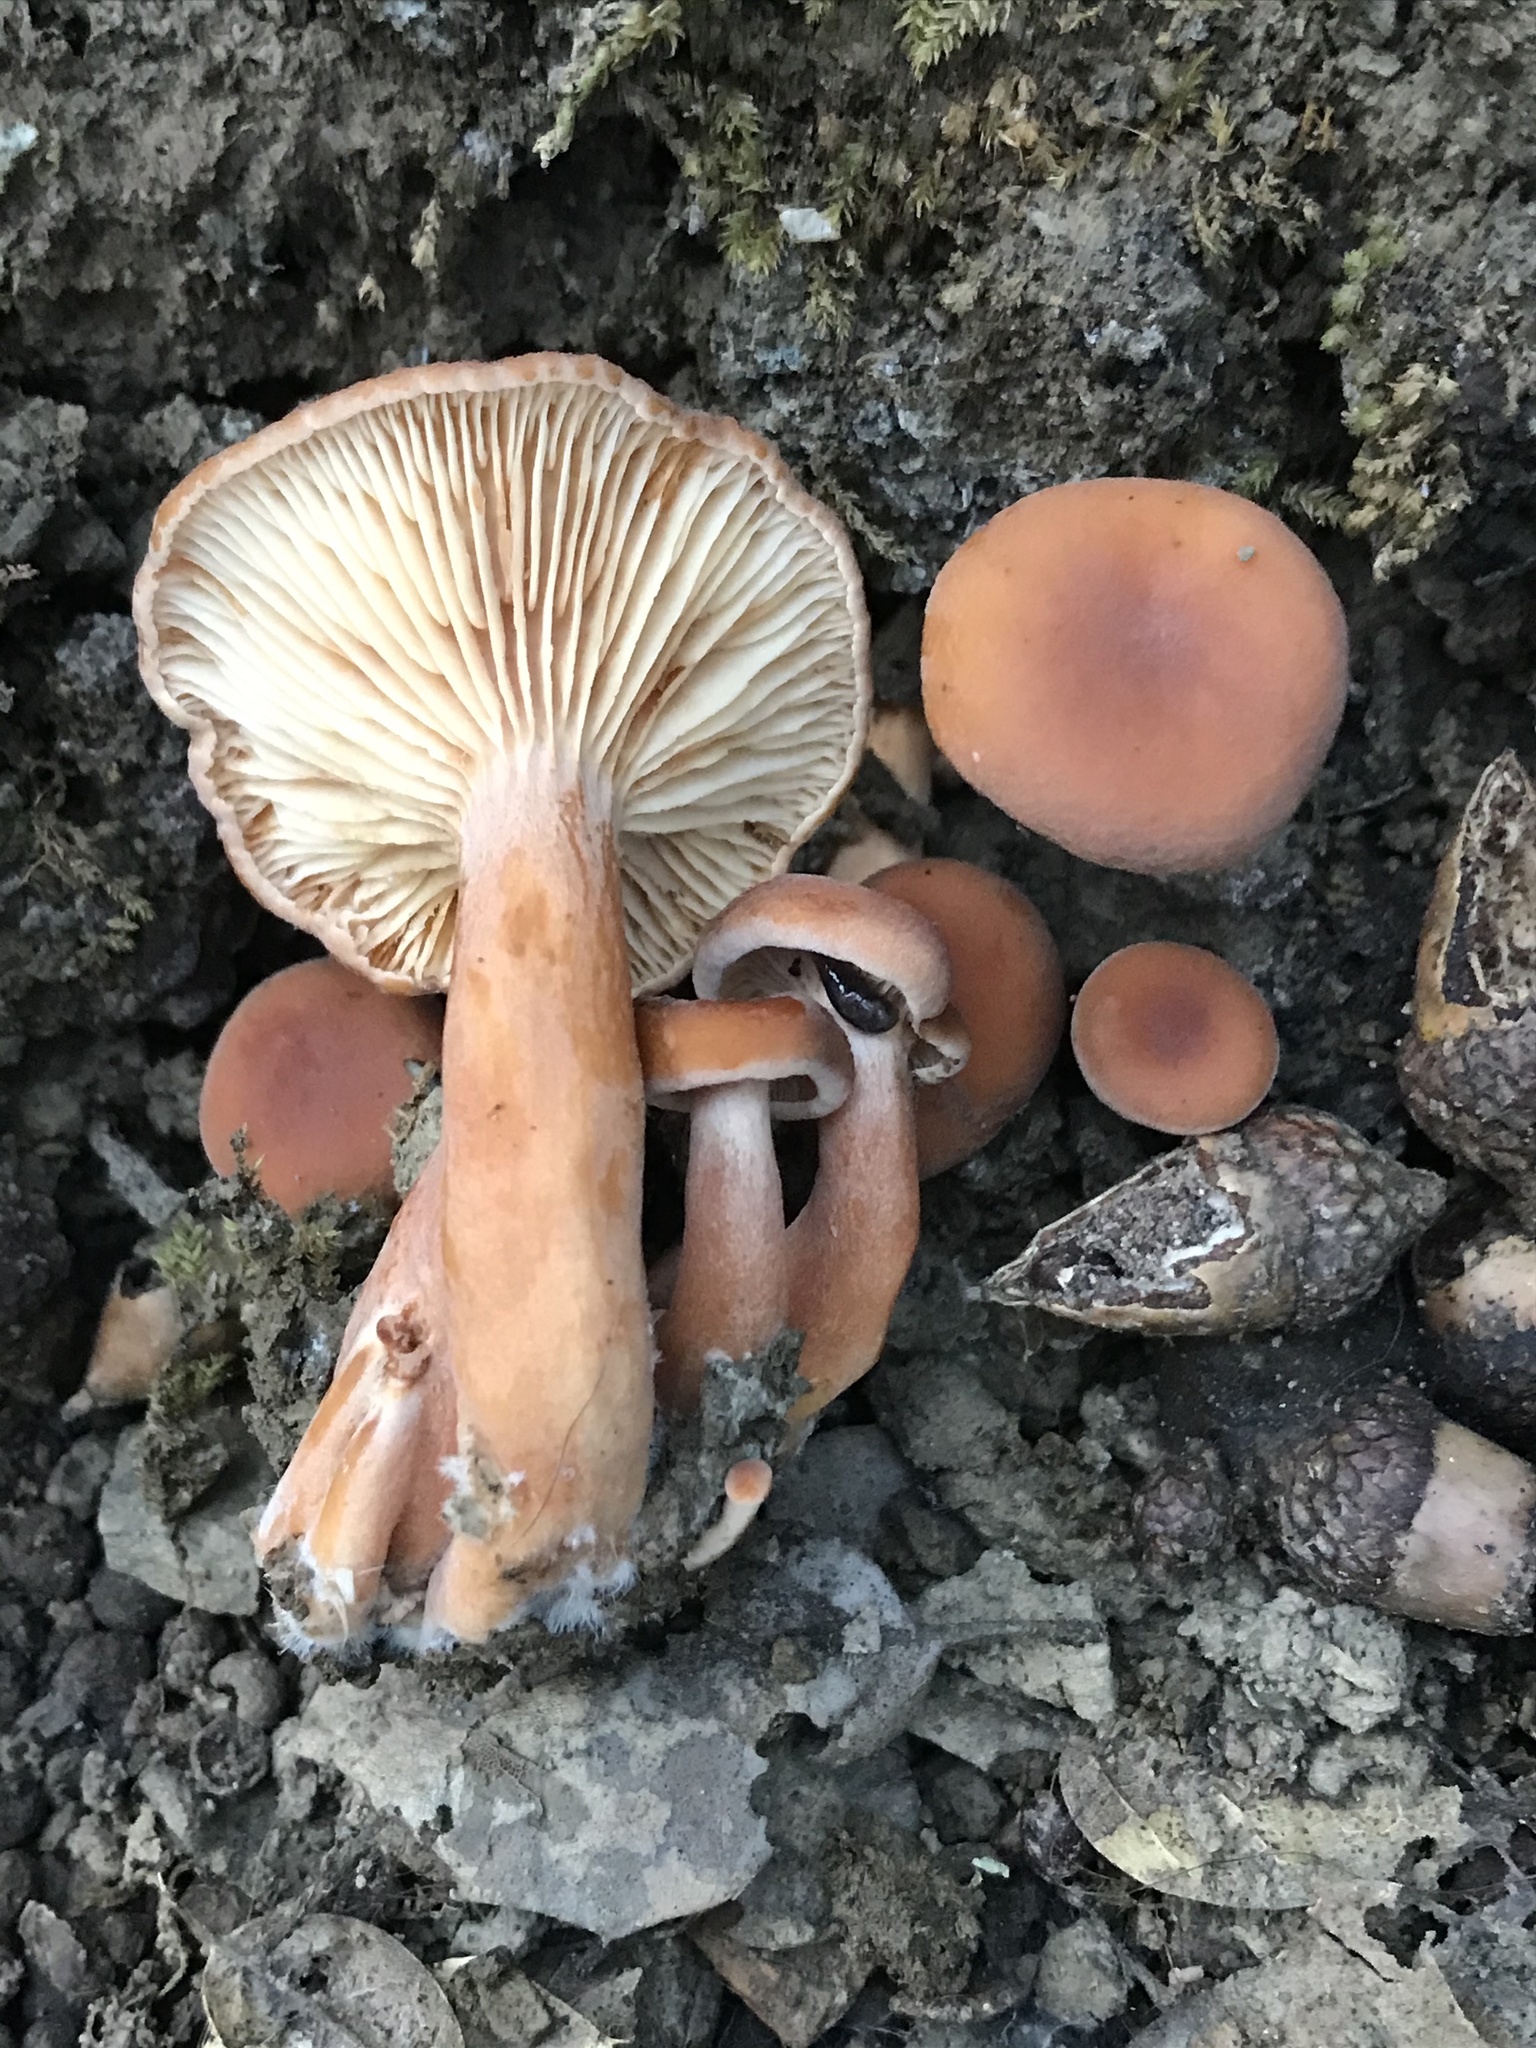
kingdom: Fungi
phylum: Basidiomycota
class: Agaricomycetes
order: Russulales
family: Russulaceae
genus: Lactarius
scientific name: Lactarius rubidus
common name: Candy cap
